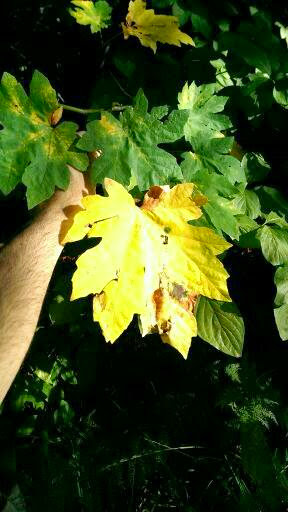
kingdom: Plantae
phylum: Tracheophyta
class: Magnoliopsida
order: Sapindales
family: Sapindaceae
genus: Acer
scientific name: Acer macrophyllum
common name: Oregon maple
